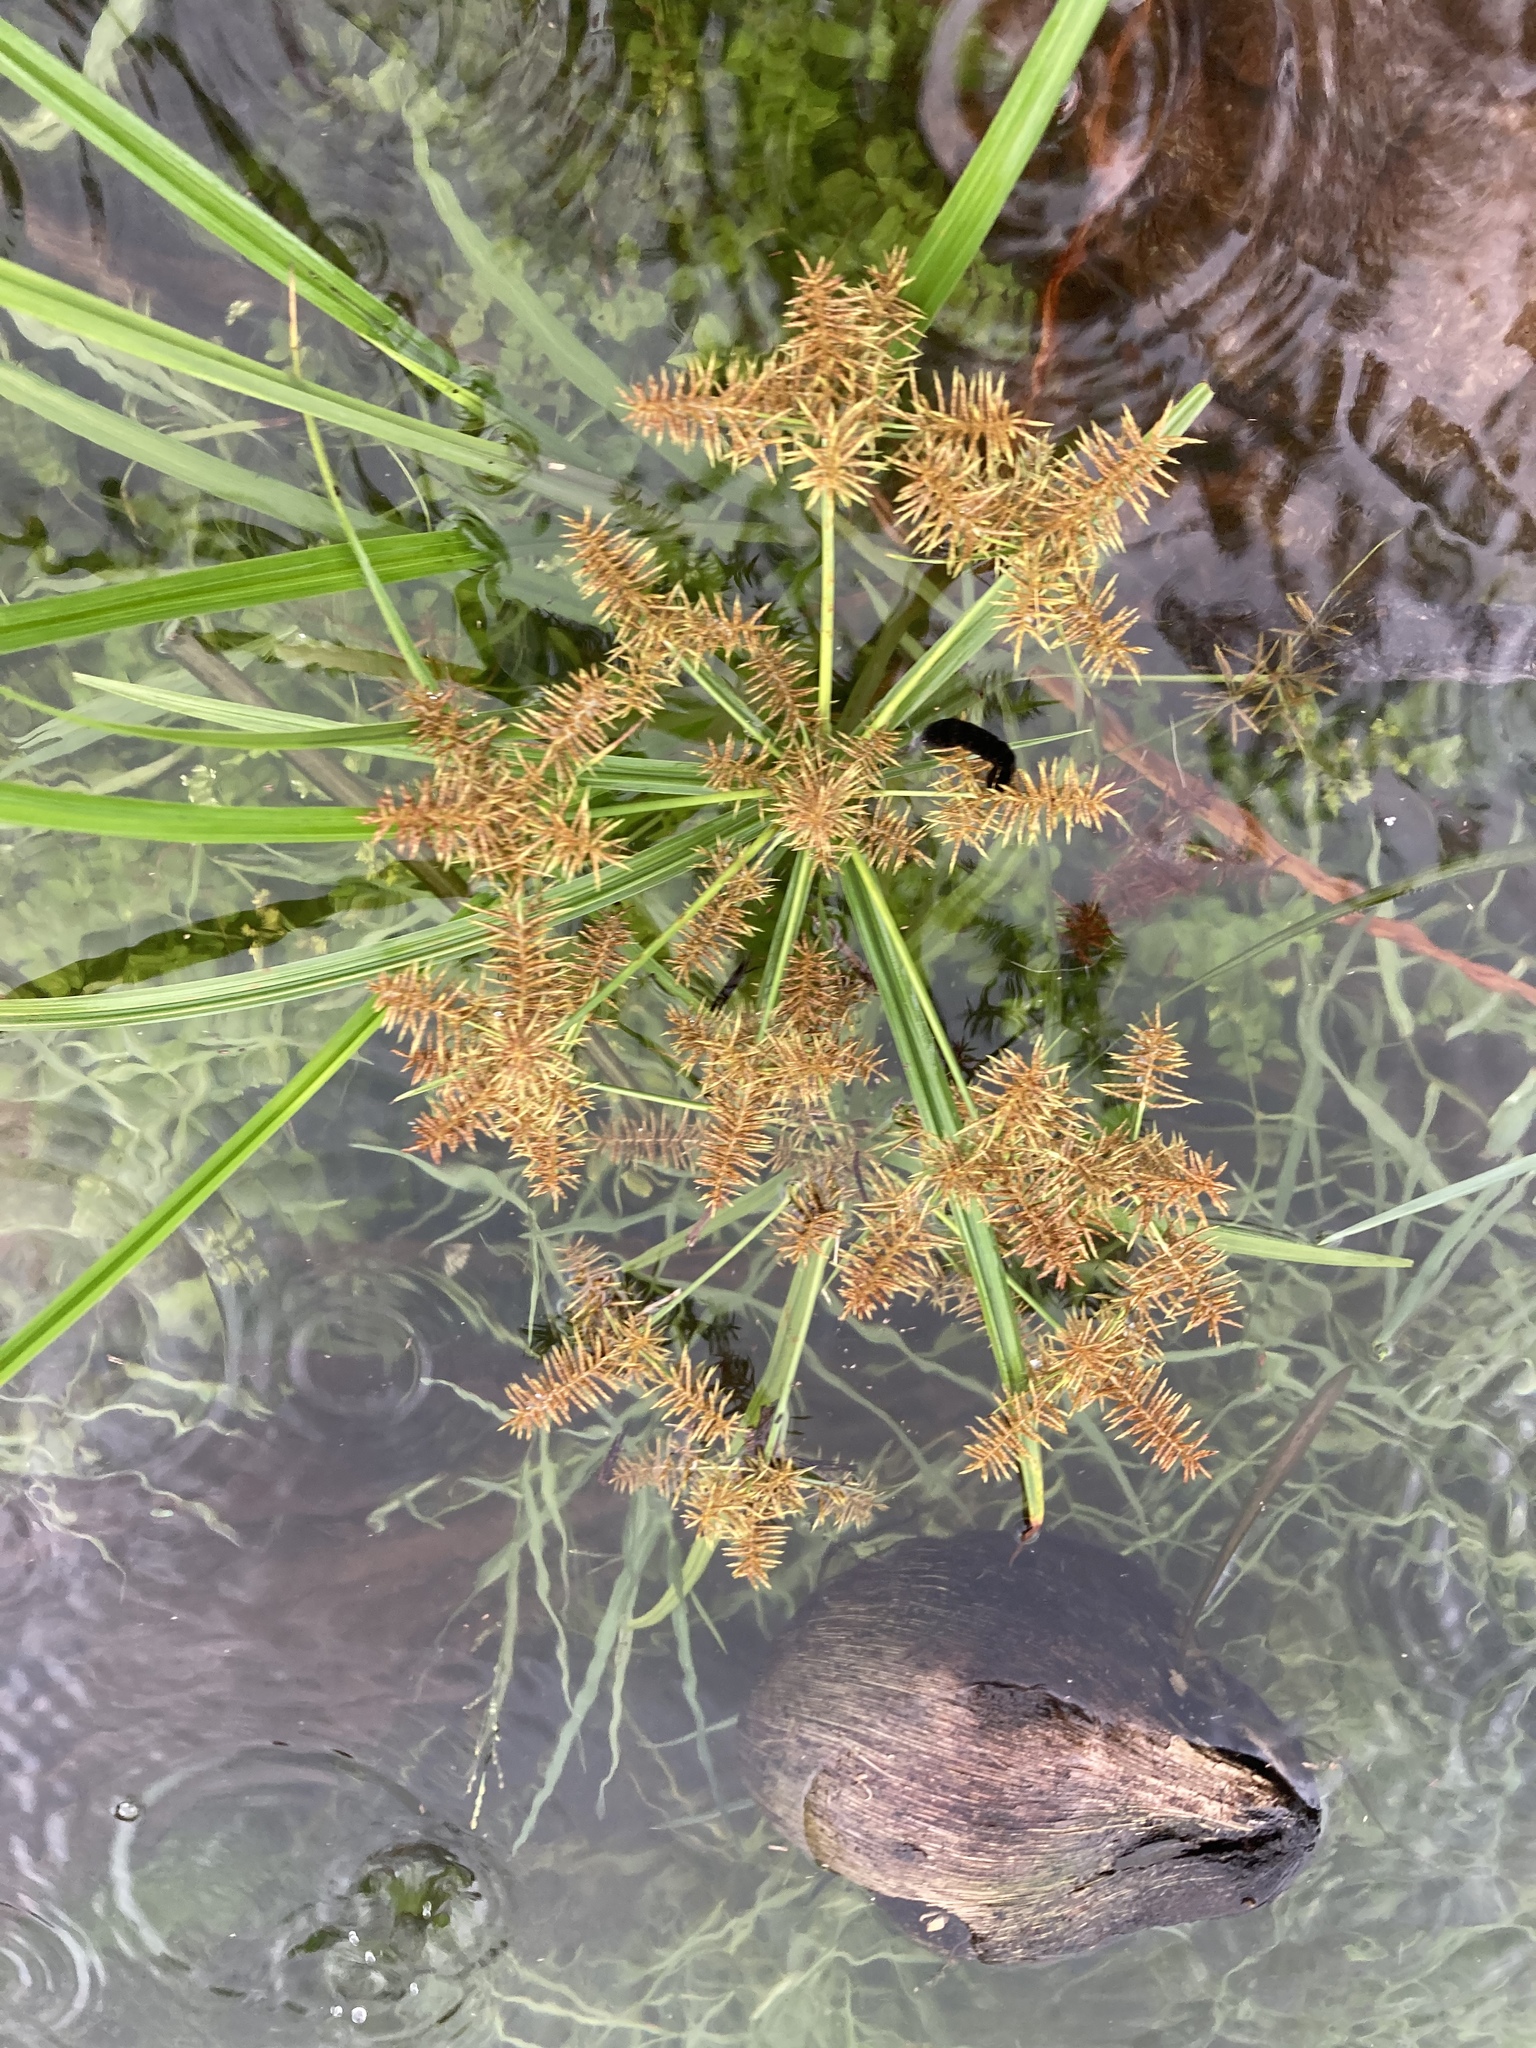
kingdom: Plantae
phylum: Tracheophyta
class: Liliopsida
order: Poales
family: Cyperaceae
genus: Cyperus
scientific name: Cyperus odoratus
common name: Fragrant flatsedge
